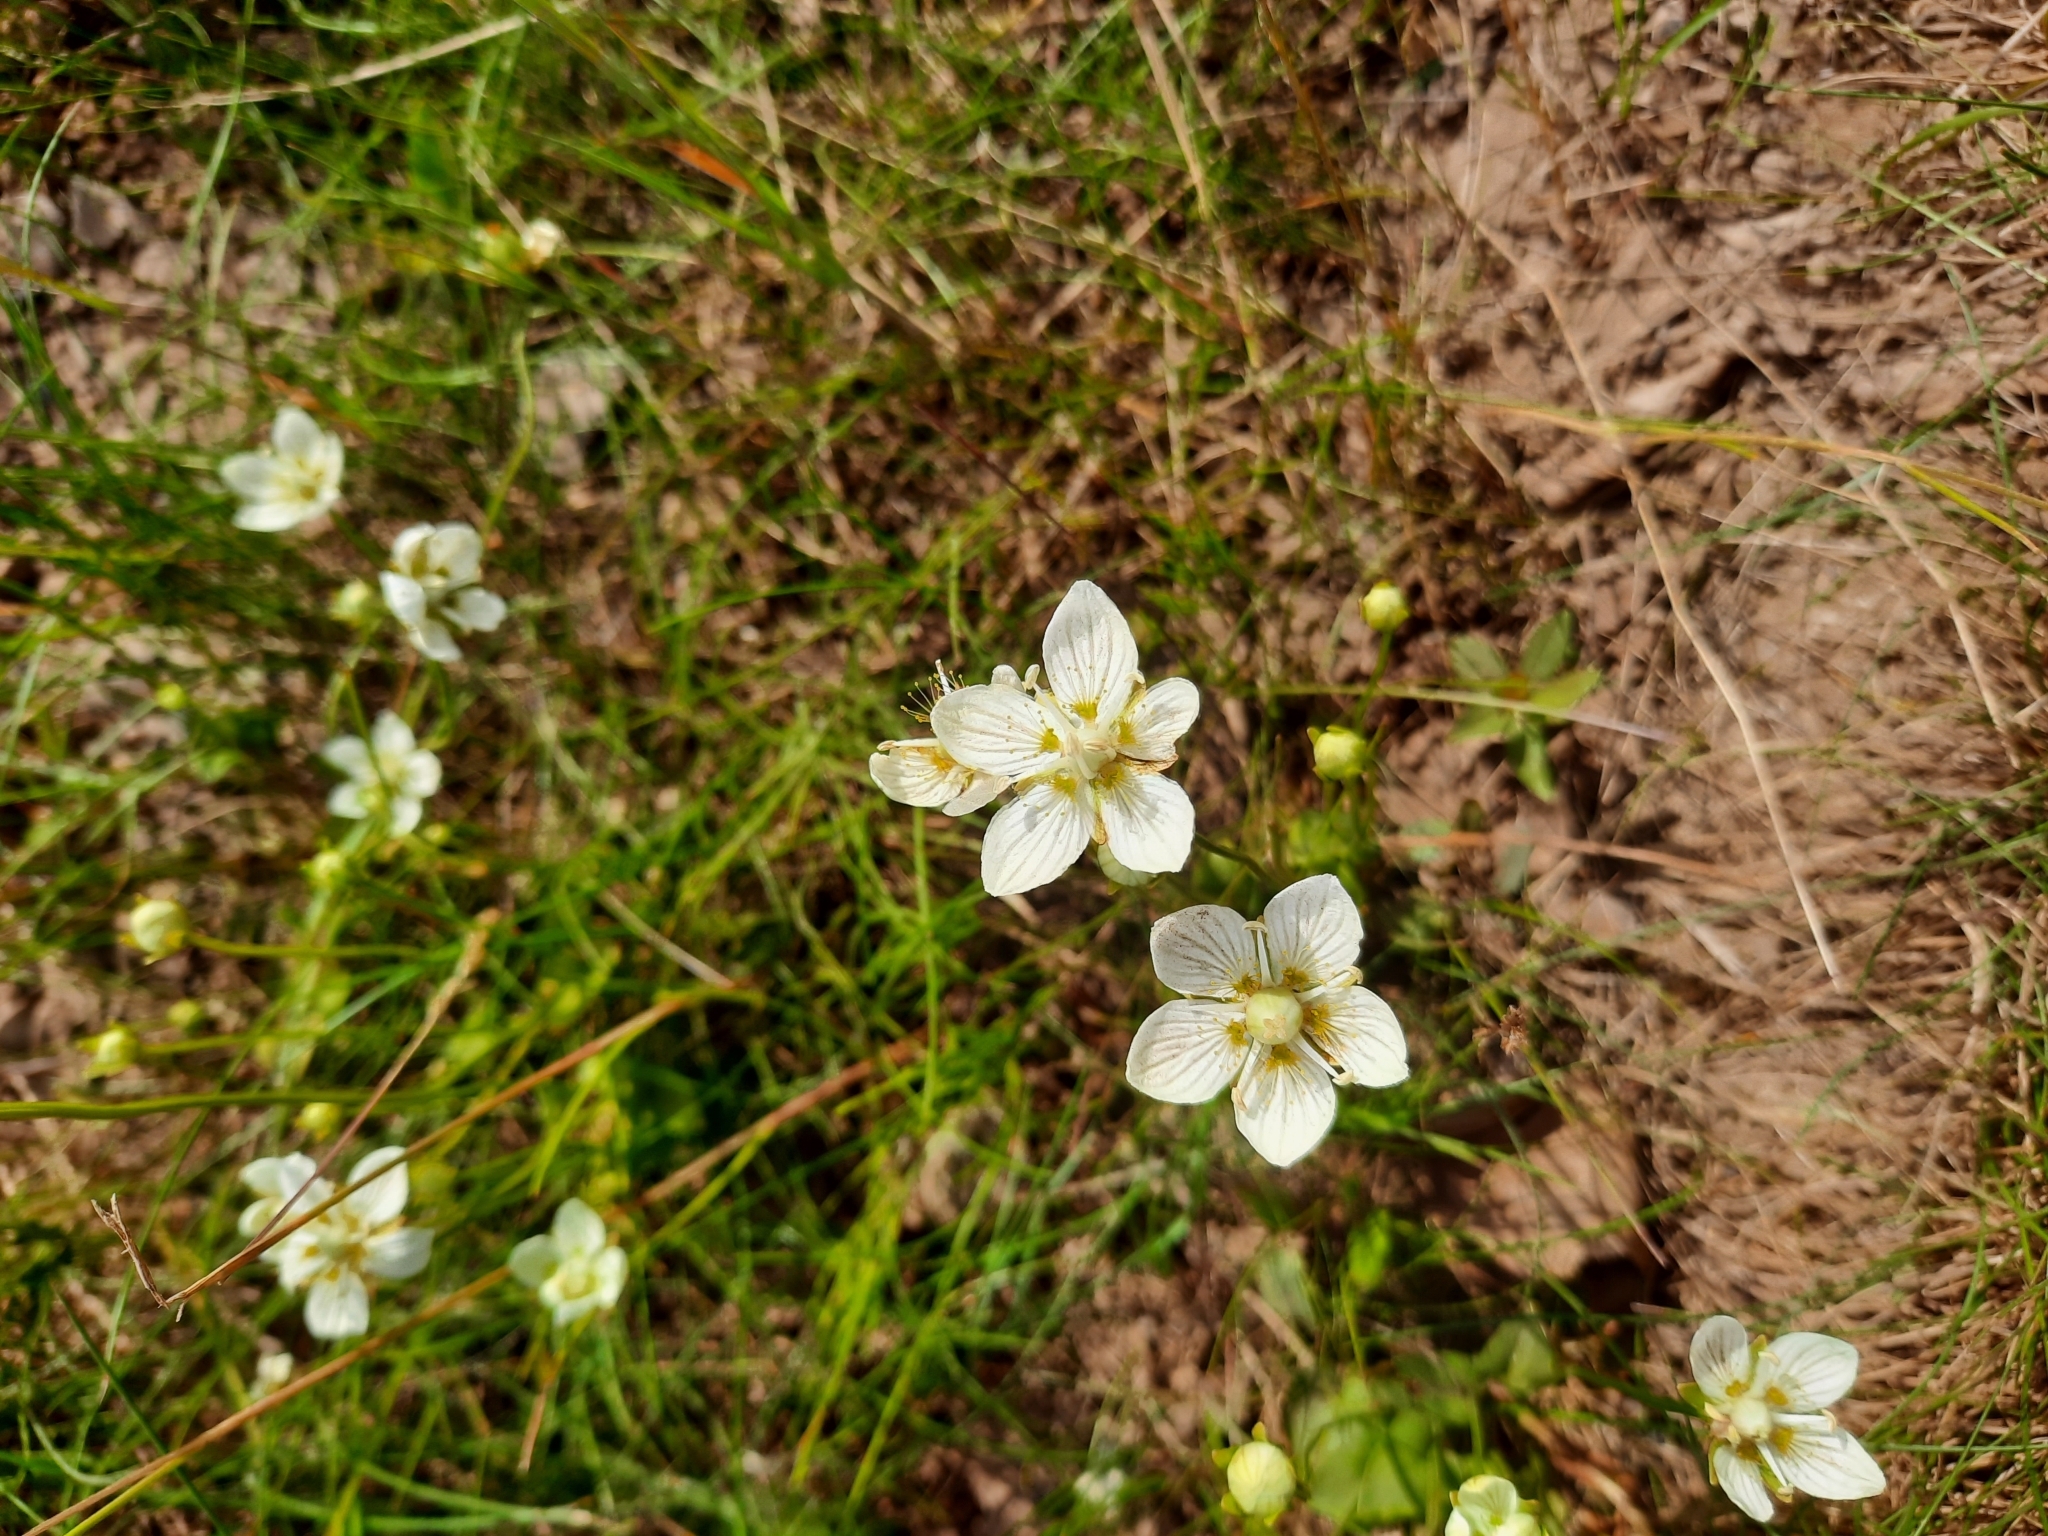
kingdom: Plantae
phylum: Tracheophyta
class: Magnoliopsida
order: Celastrales
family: Parnassiaceae
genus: Parnassia
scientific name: Parnassia palustris
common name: Grass-of-parnassus
